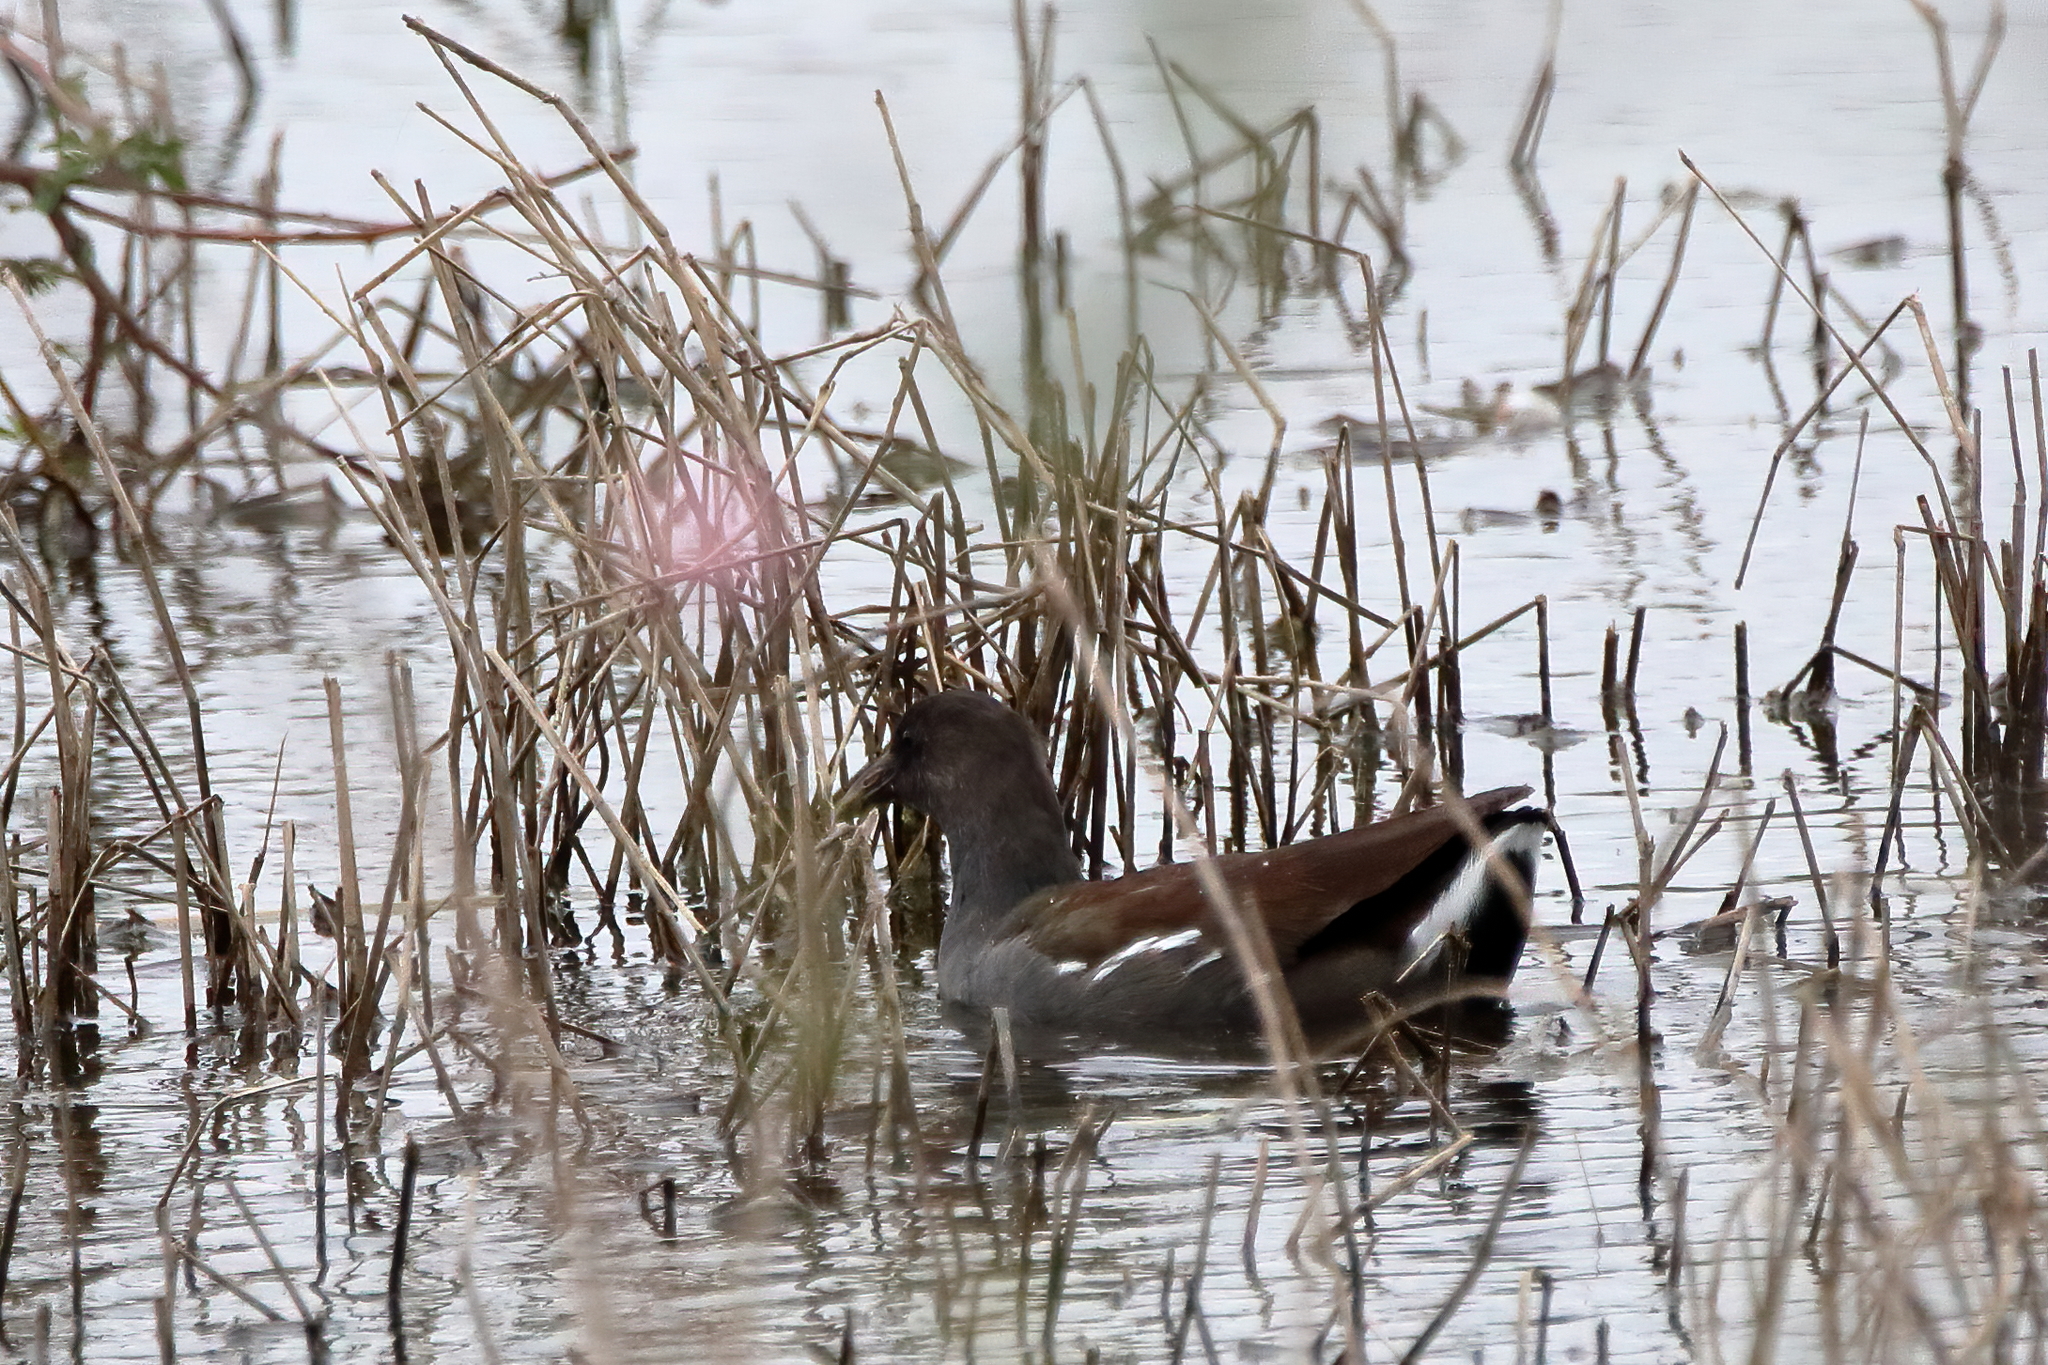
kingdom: Animalia
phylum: Chordata
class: Aves
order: Gruiformes
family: Rallidae
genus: Gallinula
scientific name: Gallinula chloropus
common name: Common moorhen
